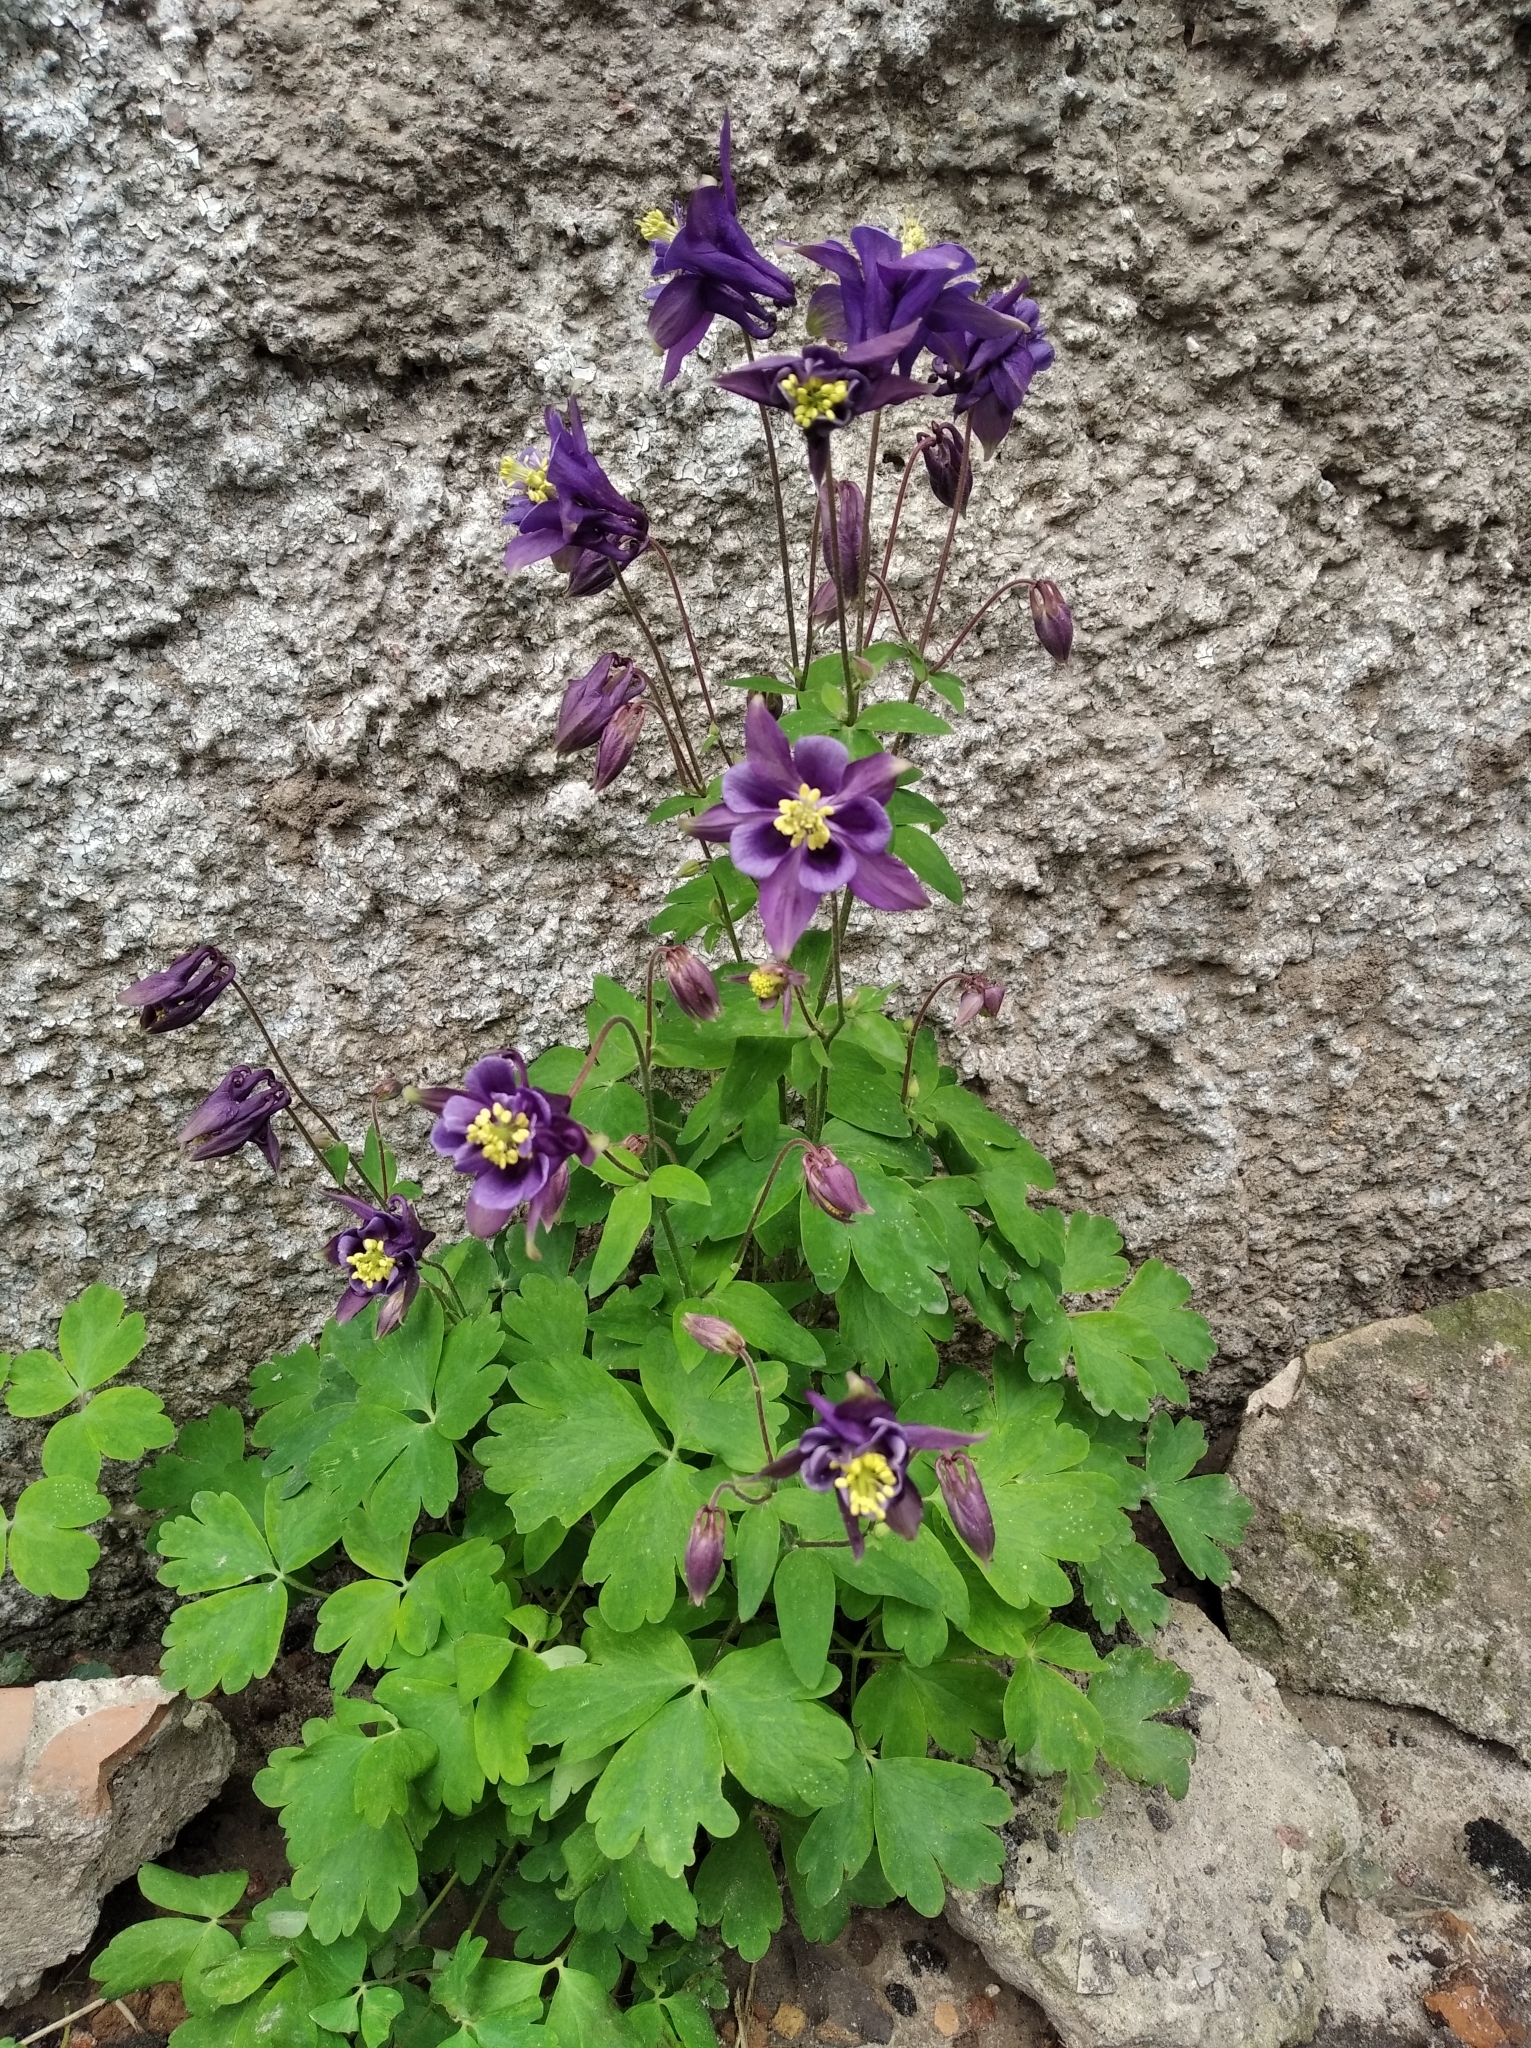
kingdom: Plantae
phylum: Tracheophyta
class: Magnoliopsida
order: Ranunculales
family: Ranunculaceae
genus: Aquilegia
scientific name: Aquilegia vulgaris
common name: Columbine
